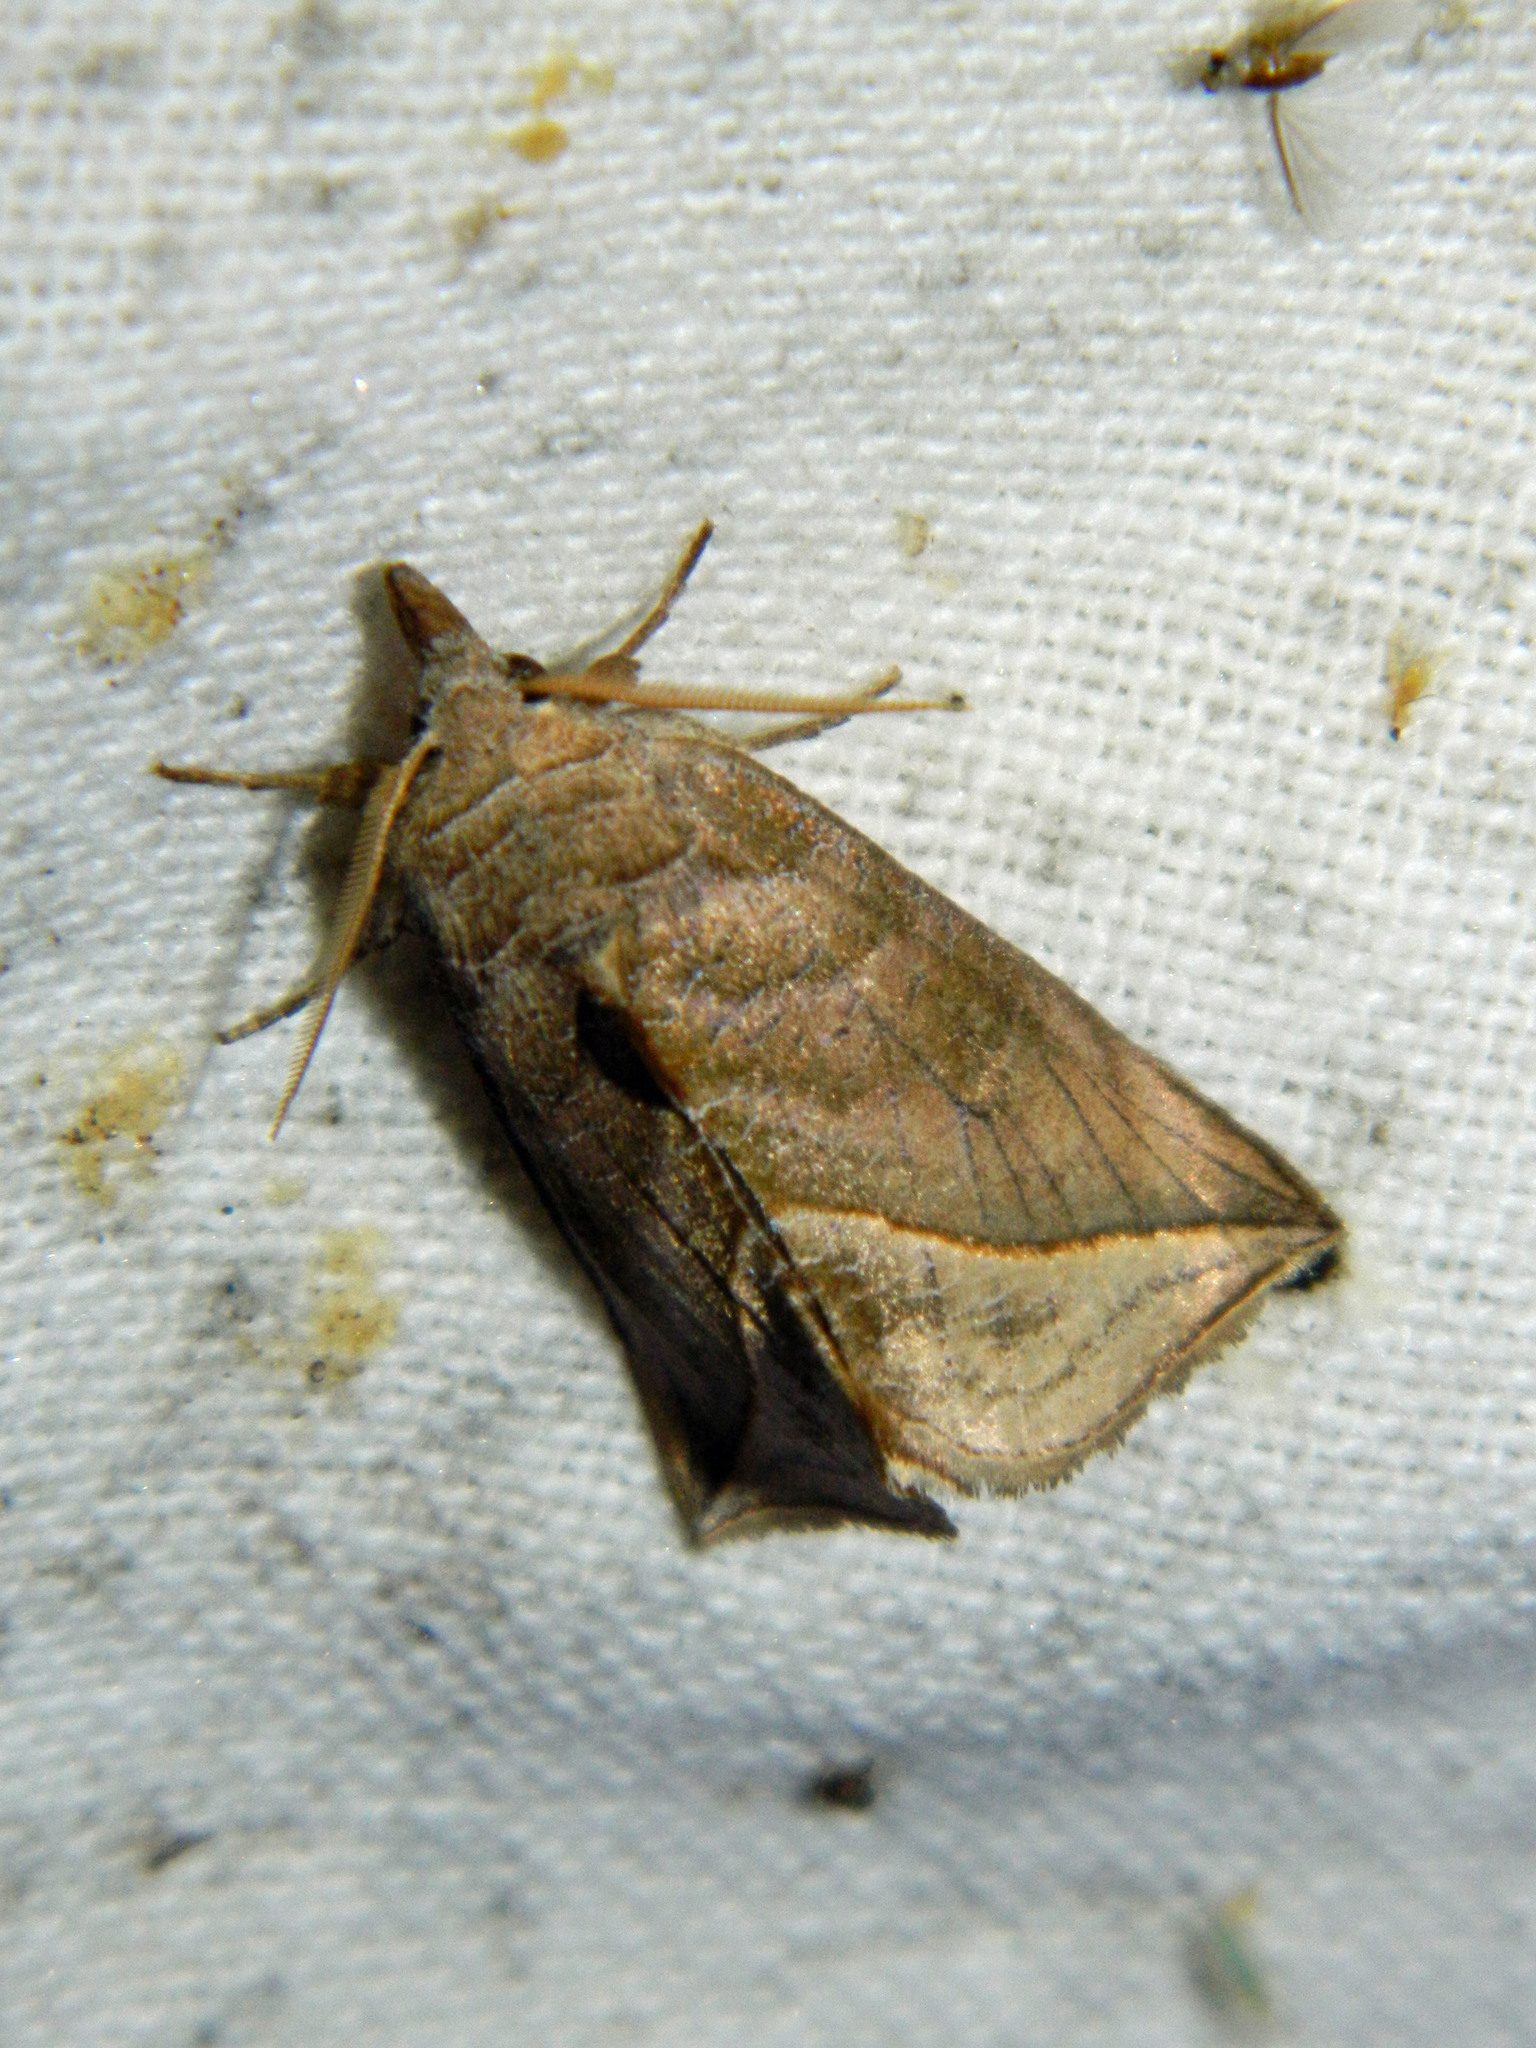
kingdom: Animalia
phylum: Arthropoda
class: Insecta
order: Lepidoptera
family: Erebidae
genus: Calyptra
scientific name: Calyptra canadensis
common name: Canadian owlet
